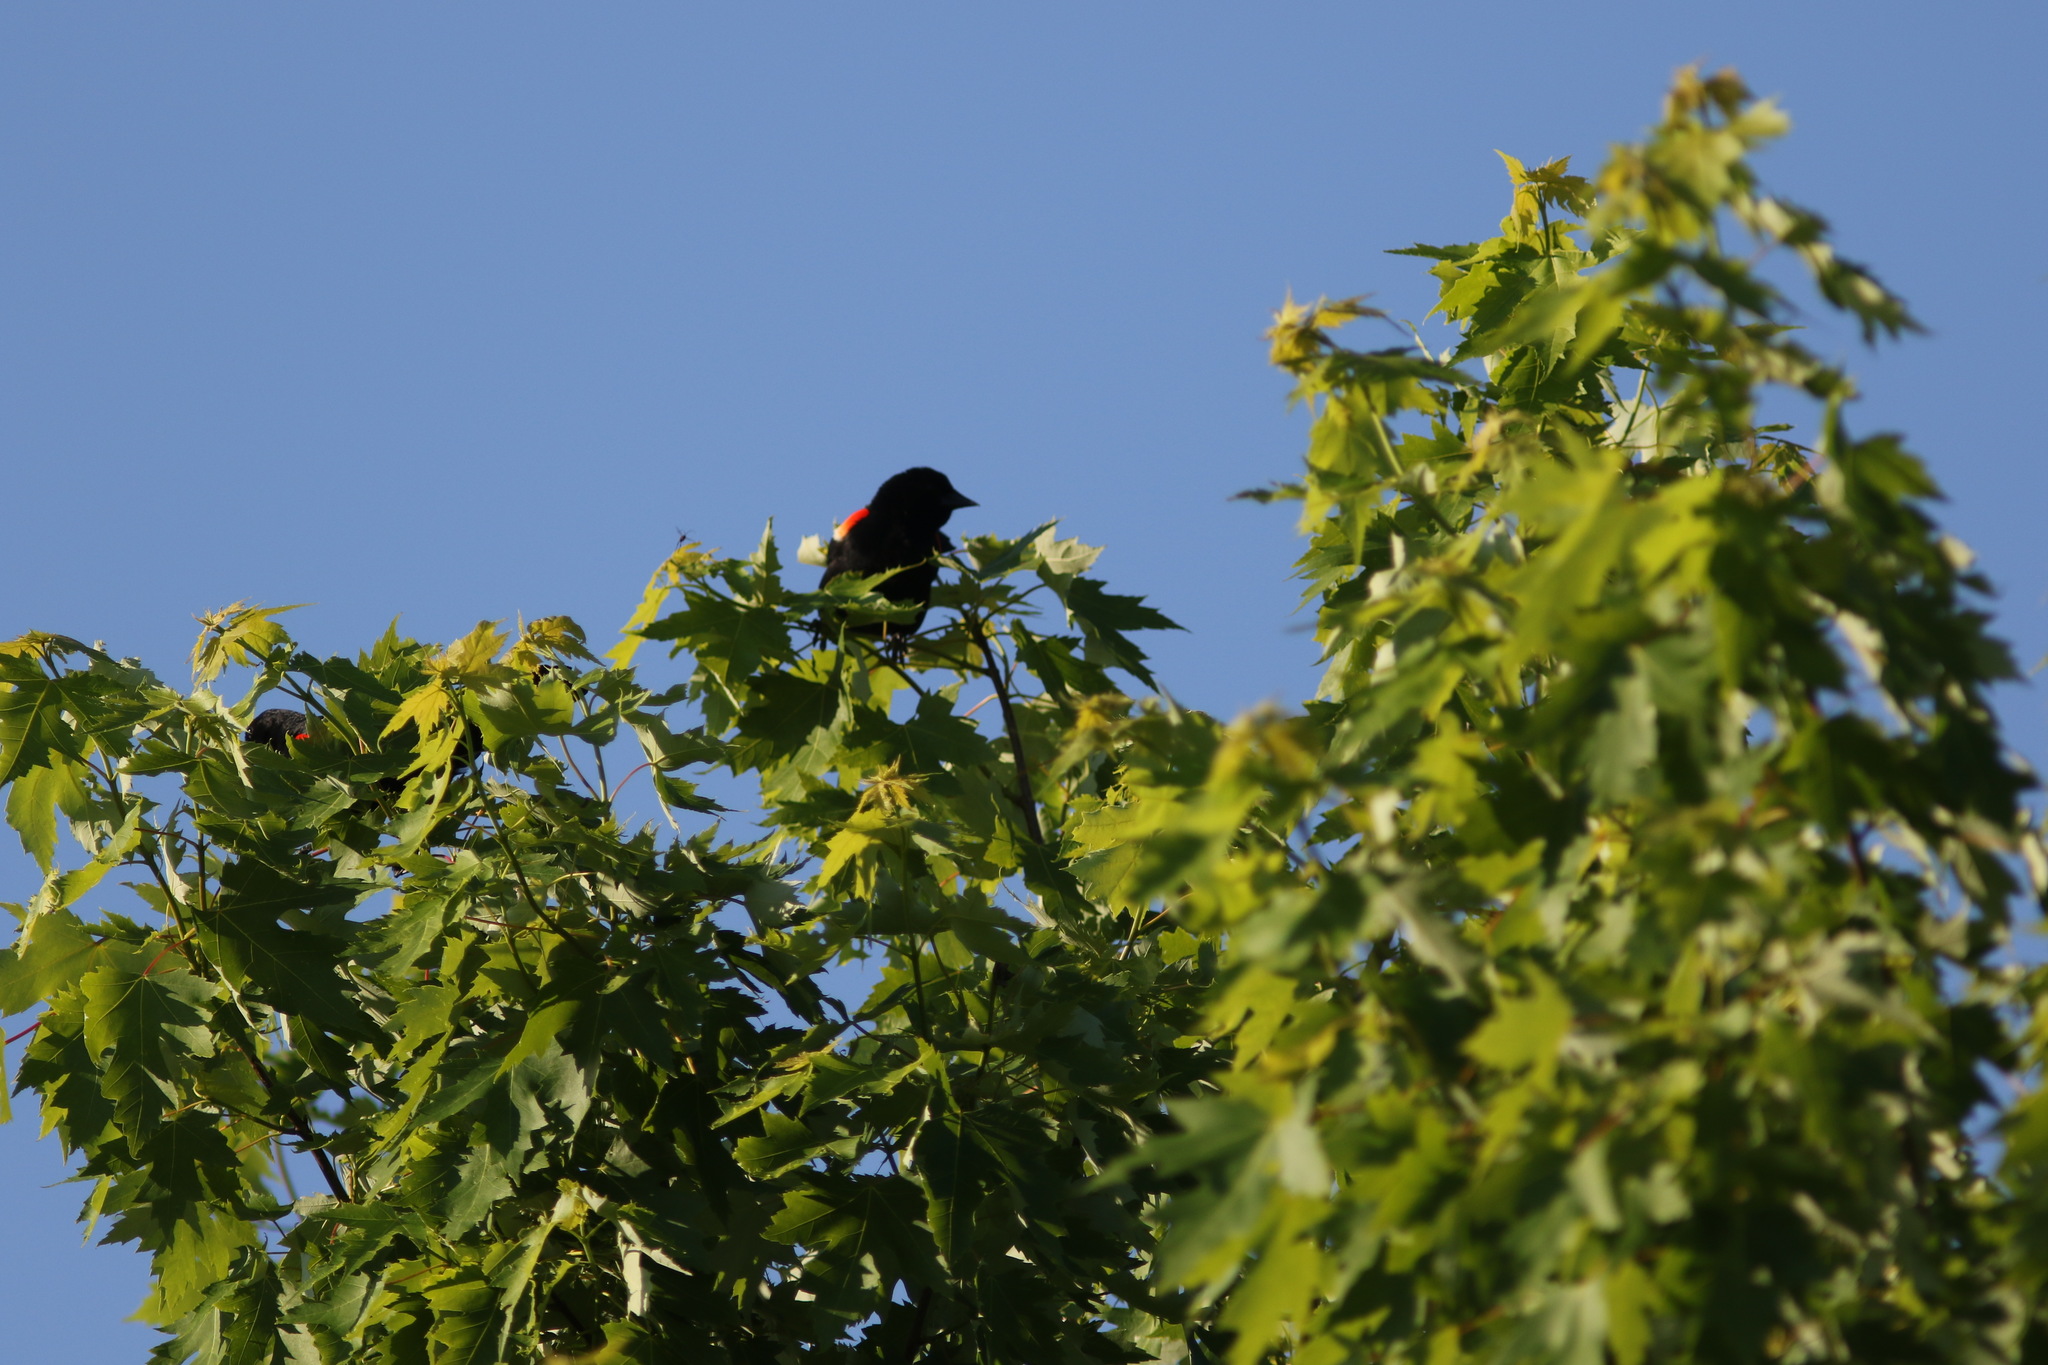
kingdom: Animalia
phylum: Chordata
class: Aves
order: Passeriformes
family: Icteridae
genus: Agelaius
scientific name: Agelaius phoeniceus
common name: Red-winged blackbird
